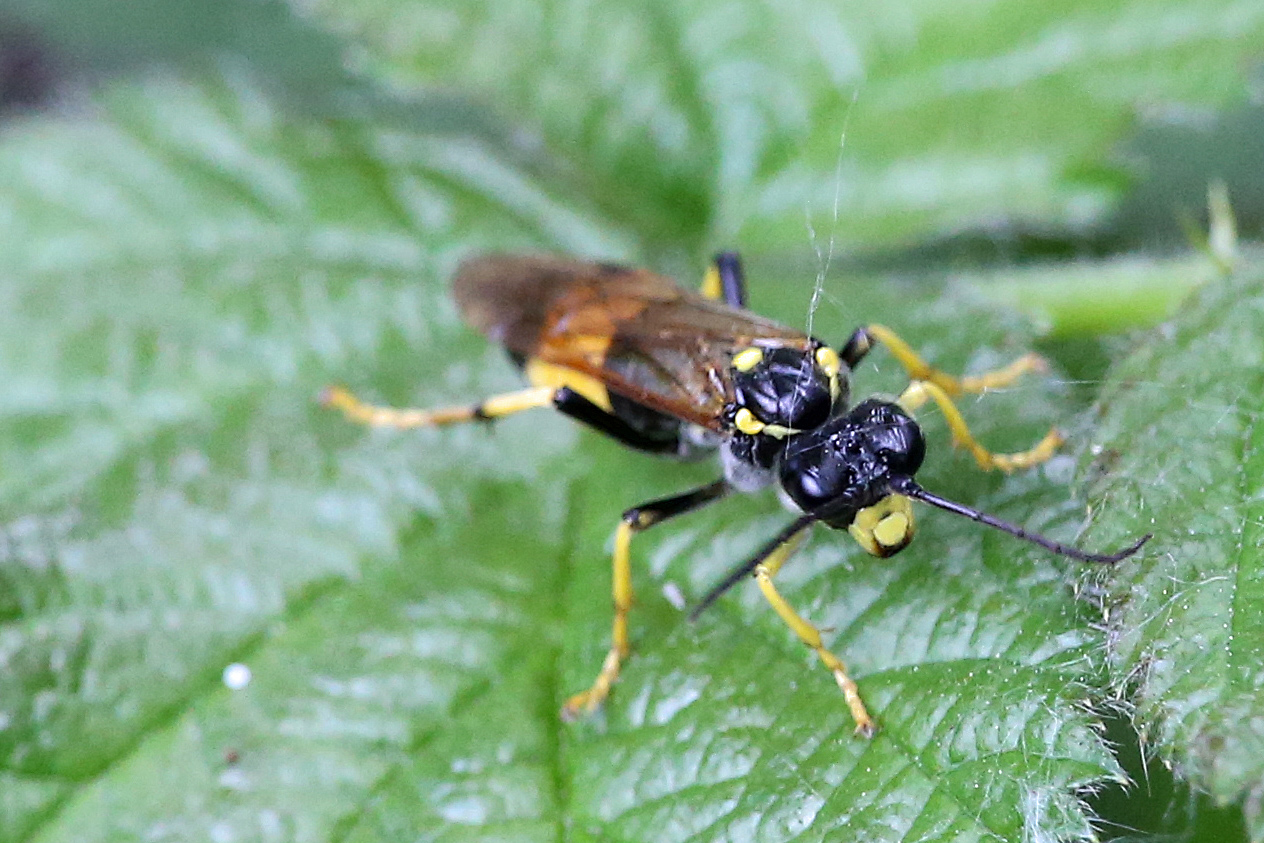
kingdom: Animalia
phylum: Arthropoda
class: Insecta
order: Hymenoptera
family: Tenthredinidae
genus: Tenthredo
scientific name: Tenthredo maculata
